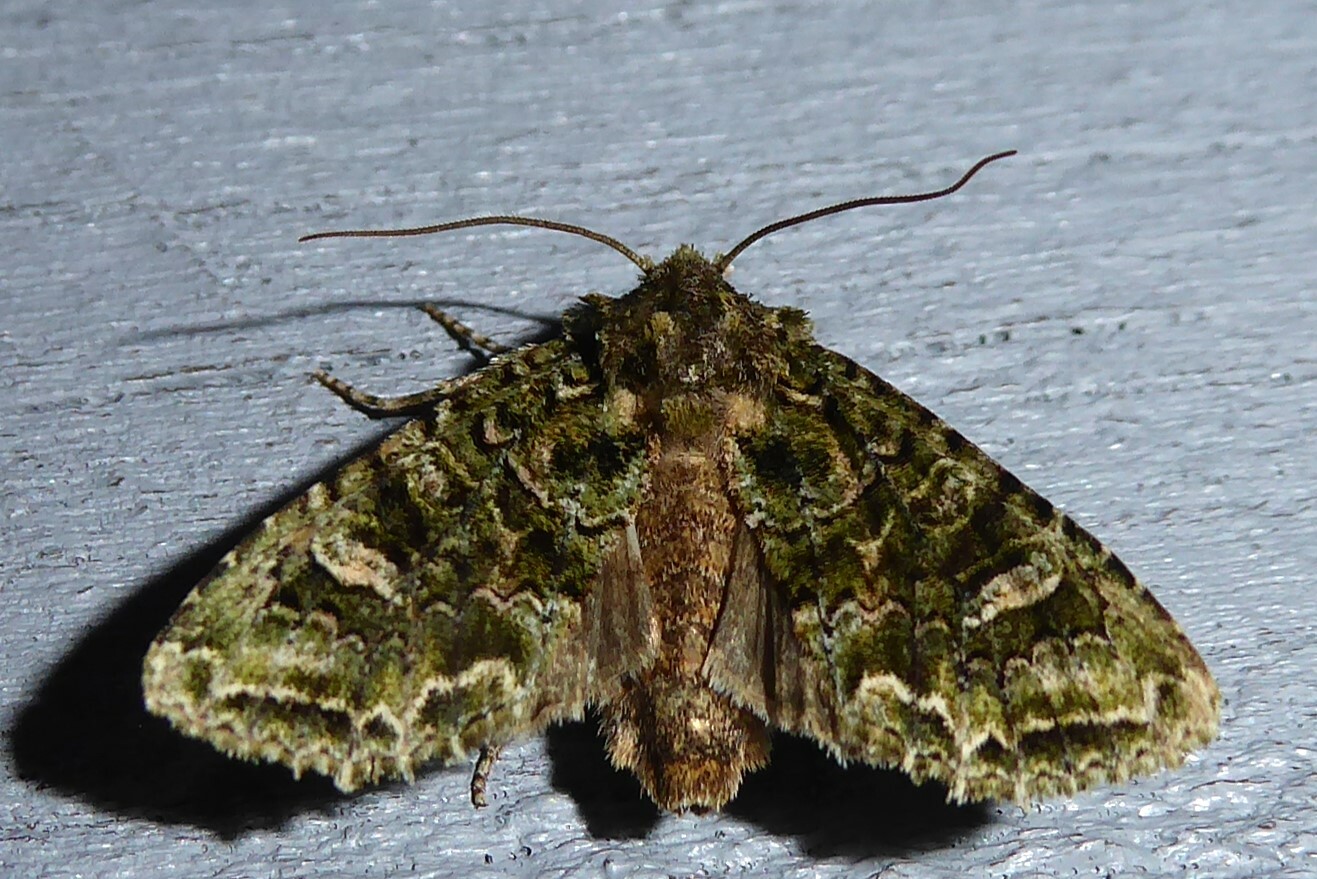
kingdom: Animalia
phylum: Arthropoda
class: Insecta
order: Lepidoptera
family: Noctuidae
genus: Ichneutica
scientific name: Ichneutica
